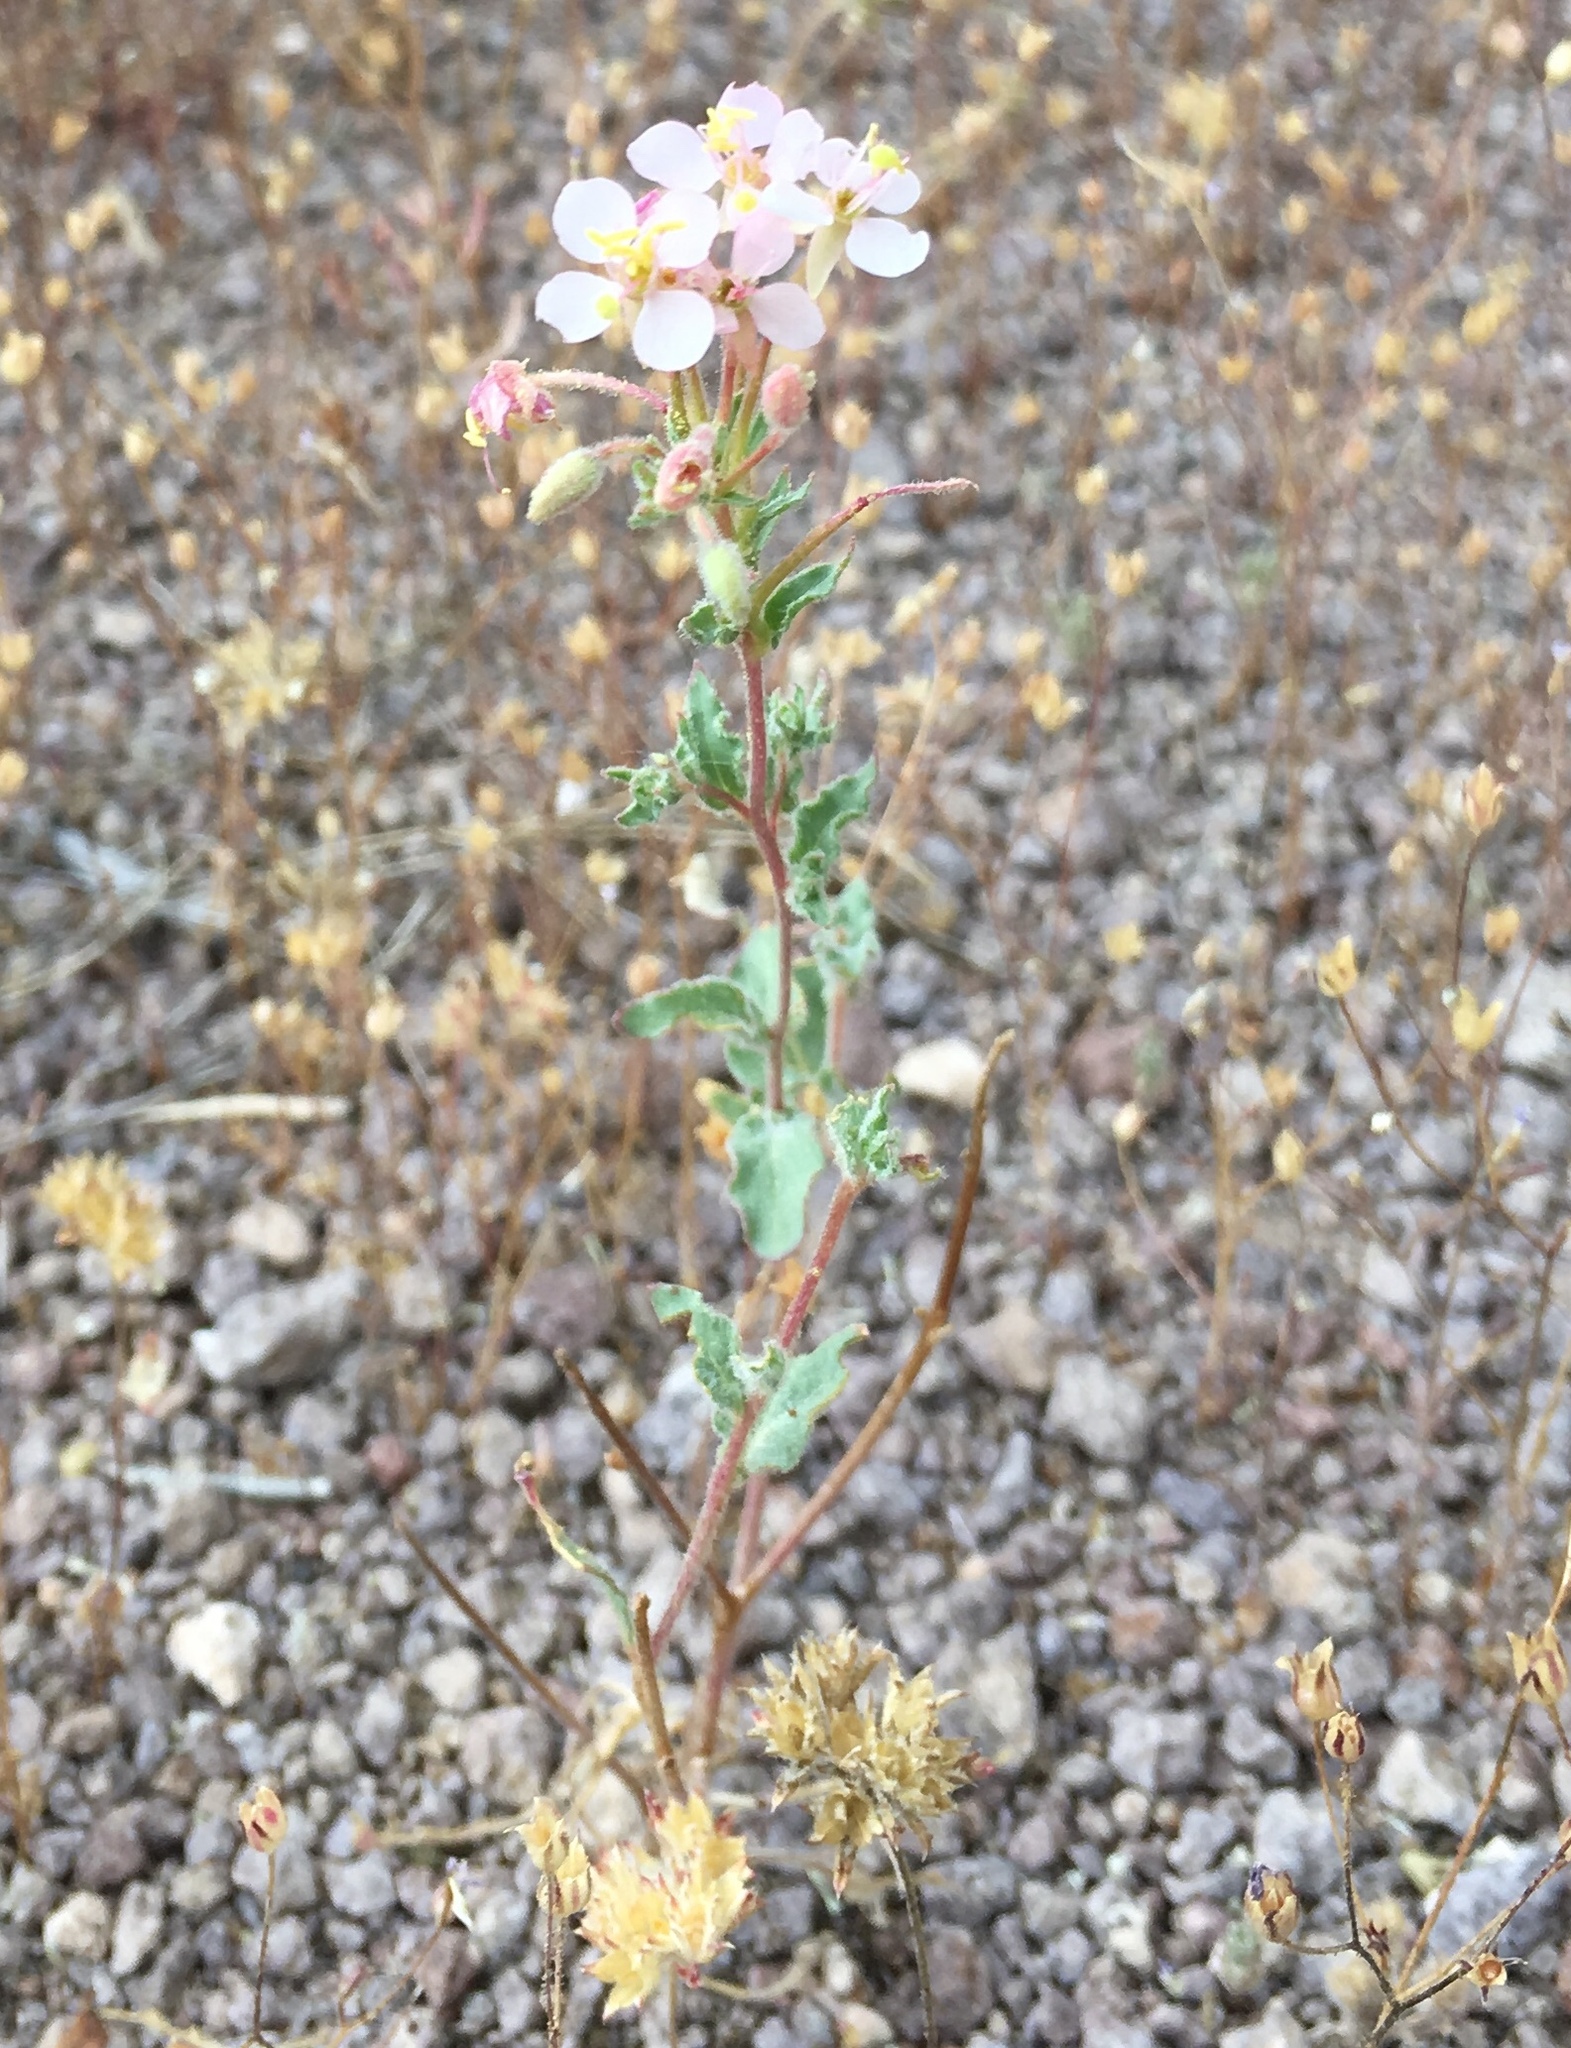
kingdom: Plantae
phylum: Tracheophyta
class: Magnoliopsida
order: Myrtales
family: Onagraceae
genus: Eremothera
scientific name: Eremothera boothii
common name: Booth's evening primrose
